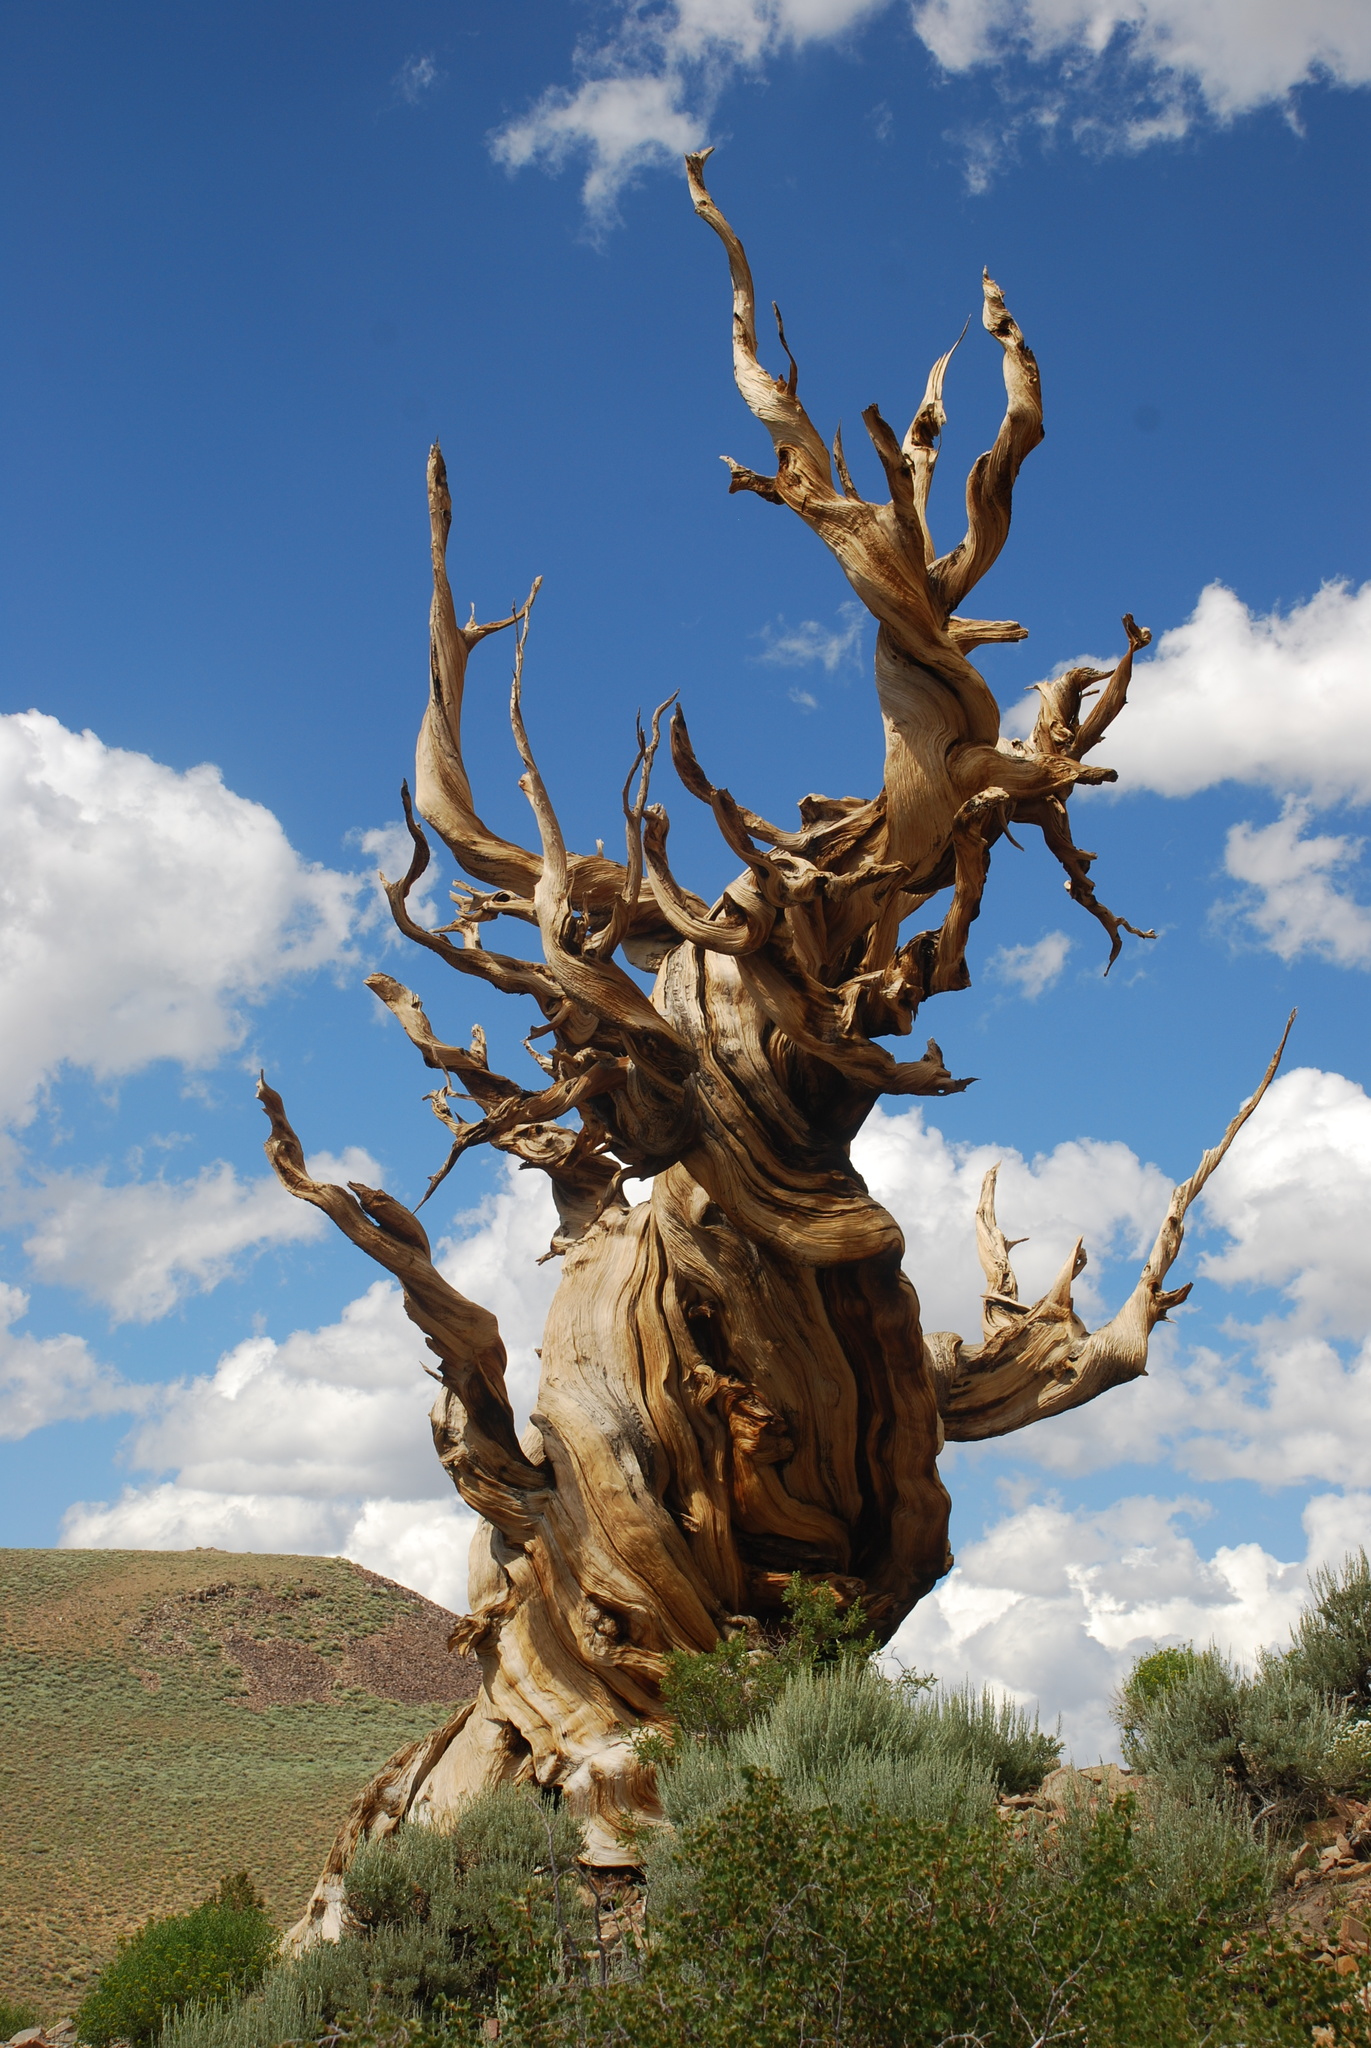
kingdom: Plantae
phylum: Tracheophyta
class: Pinopsida
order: Pinales
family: Pinaceae
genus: Pinus
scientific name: Pinus longaeva
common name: Intermountain bristlecone pine
